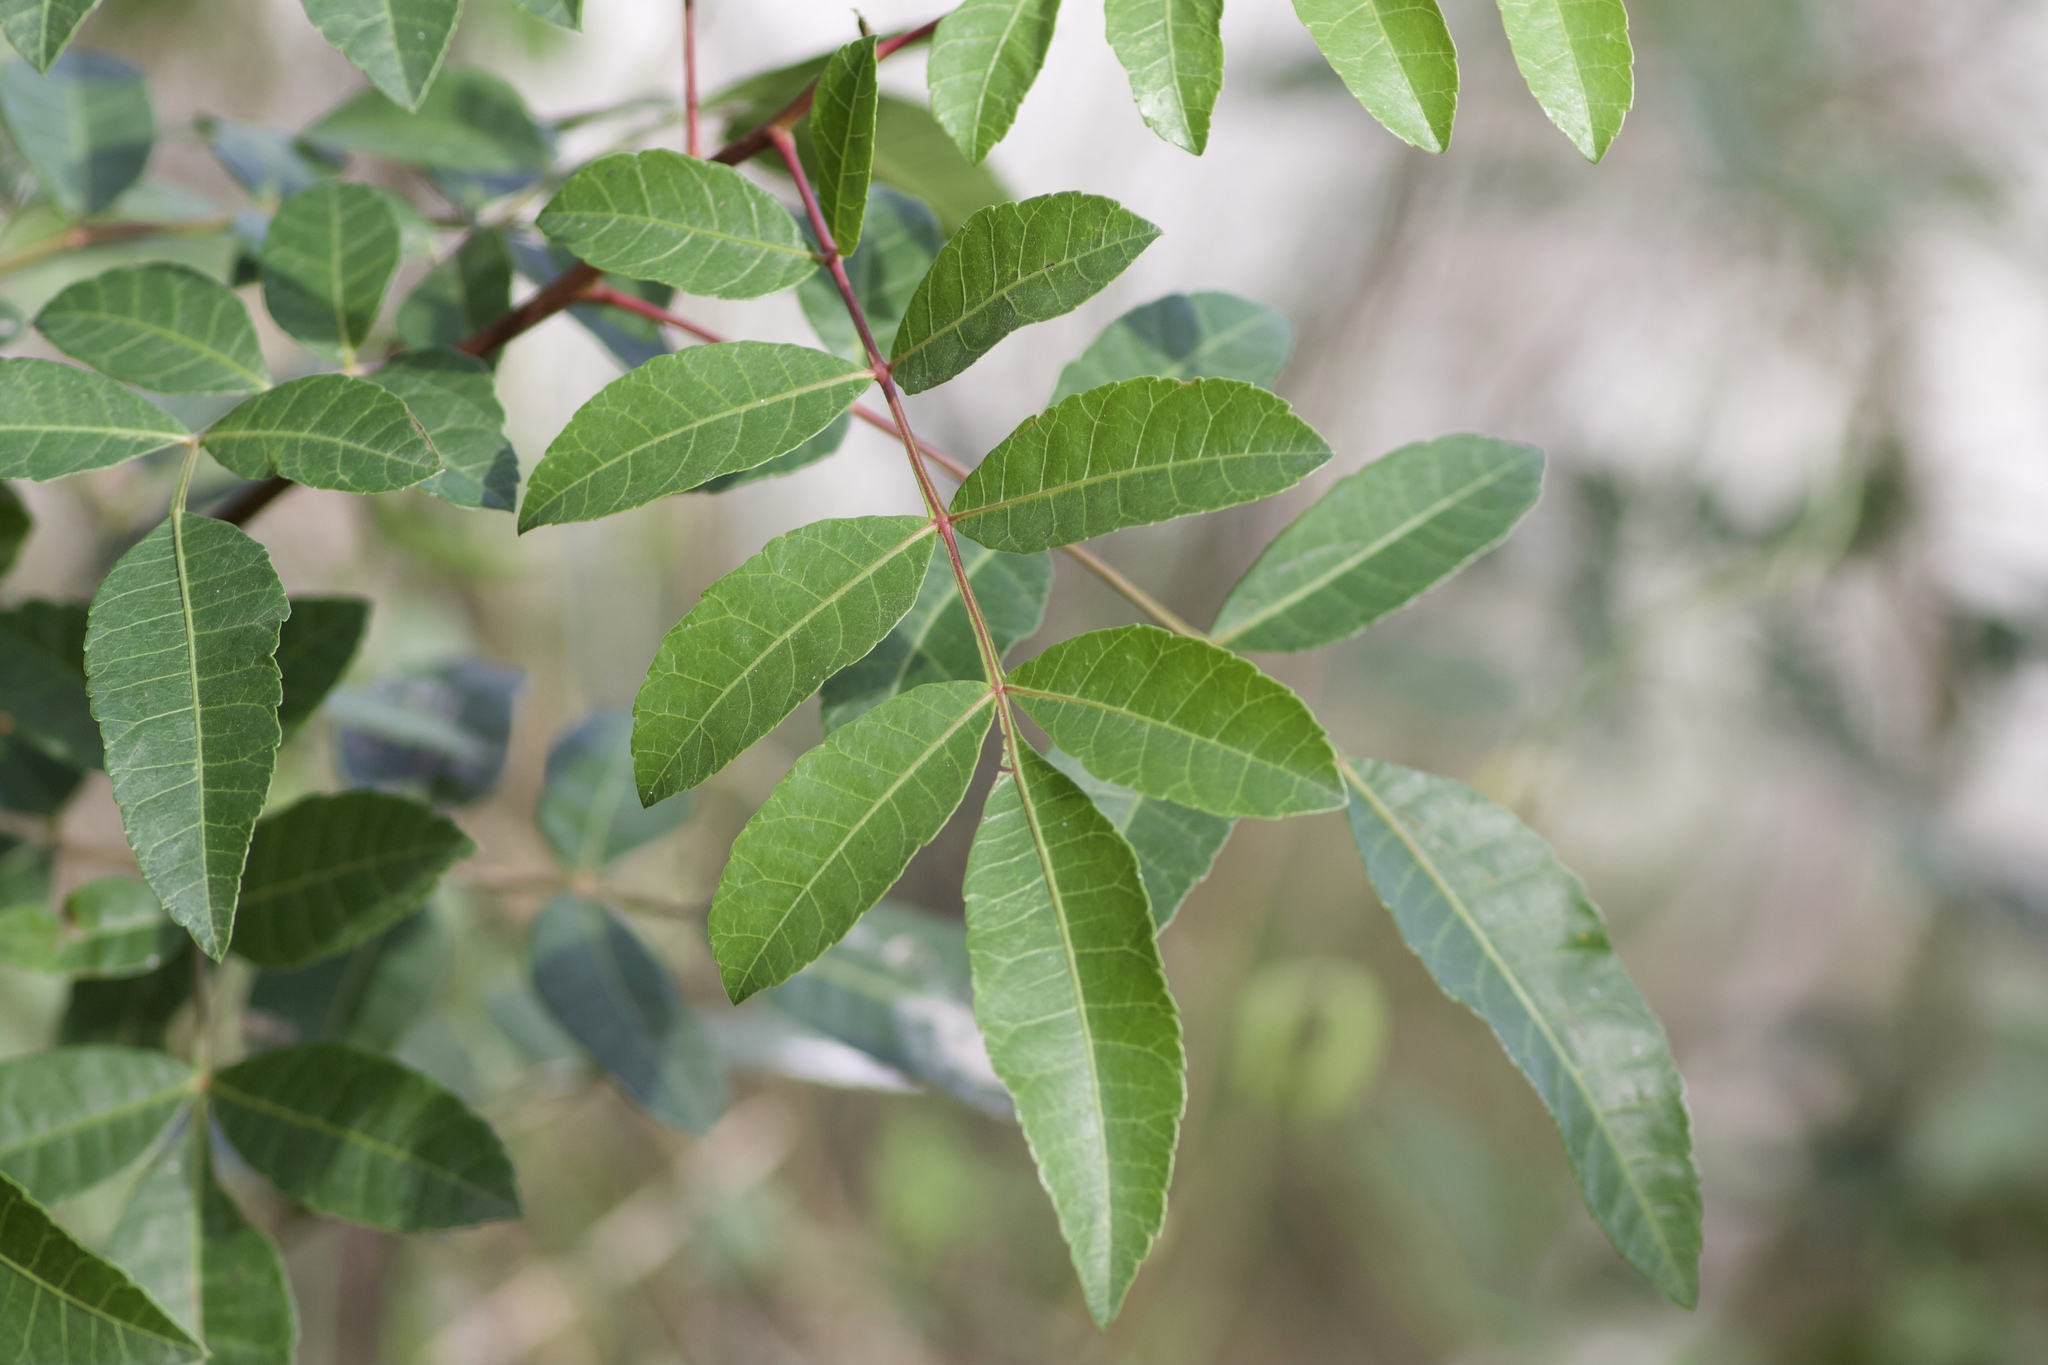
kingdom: Plantae
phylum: Tracheophyta
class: Magnoliopsida
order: Sapindales
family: Anacardiaceae
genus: Schinus
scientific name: Schinus terebinthifolia
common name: Brazilian peppertree
